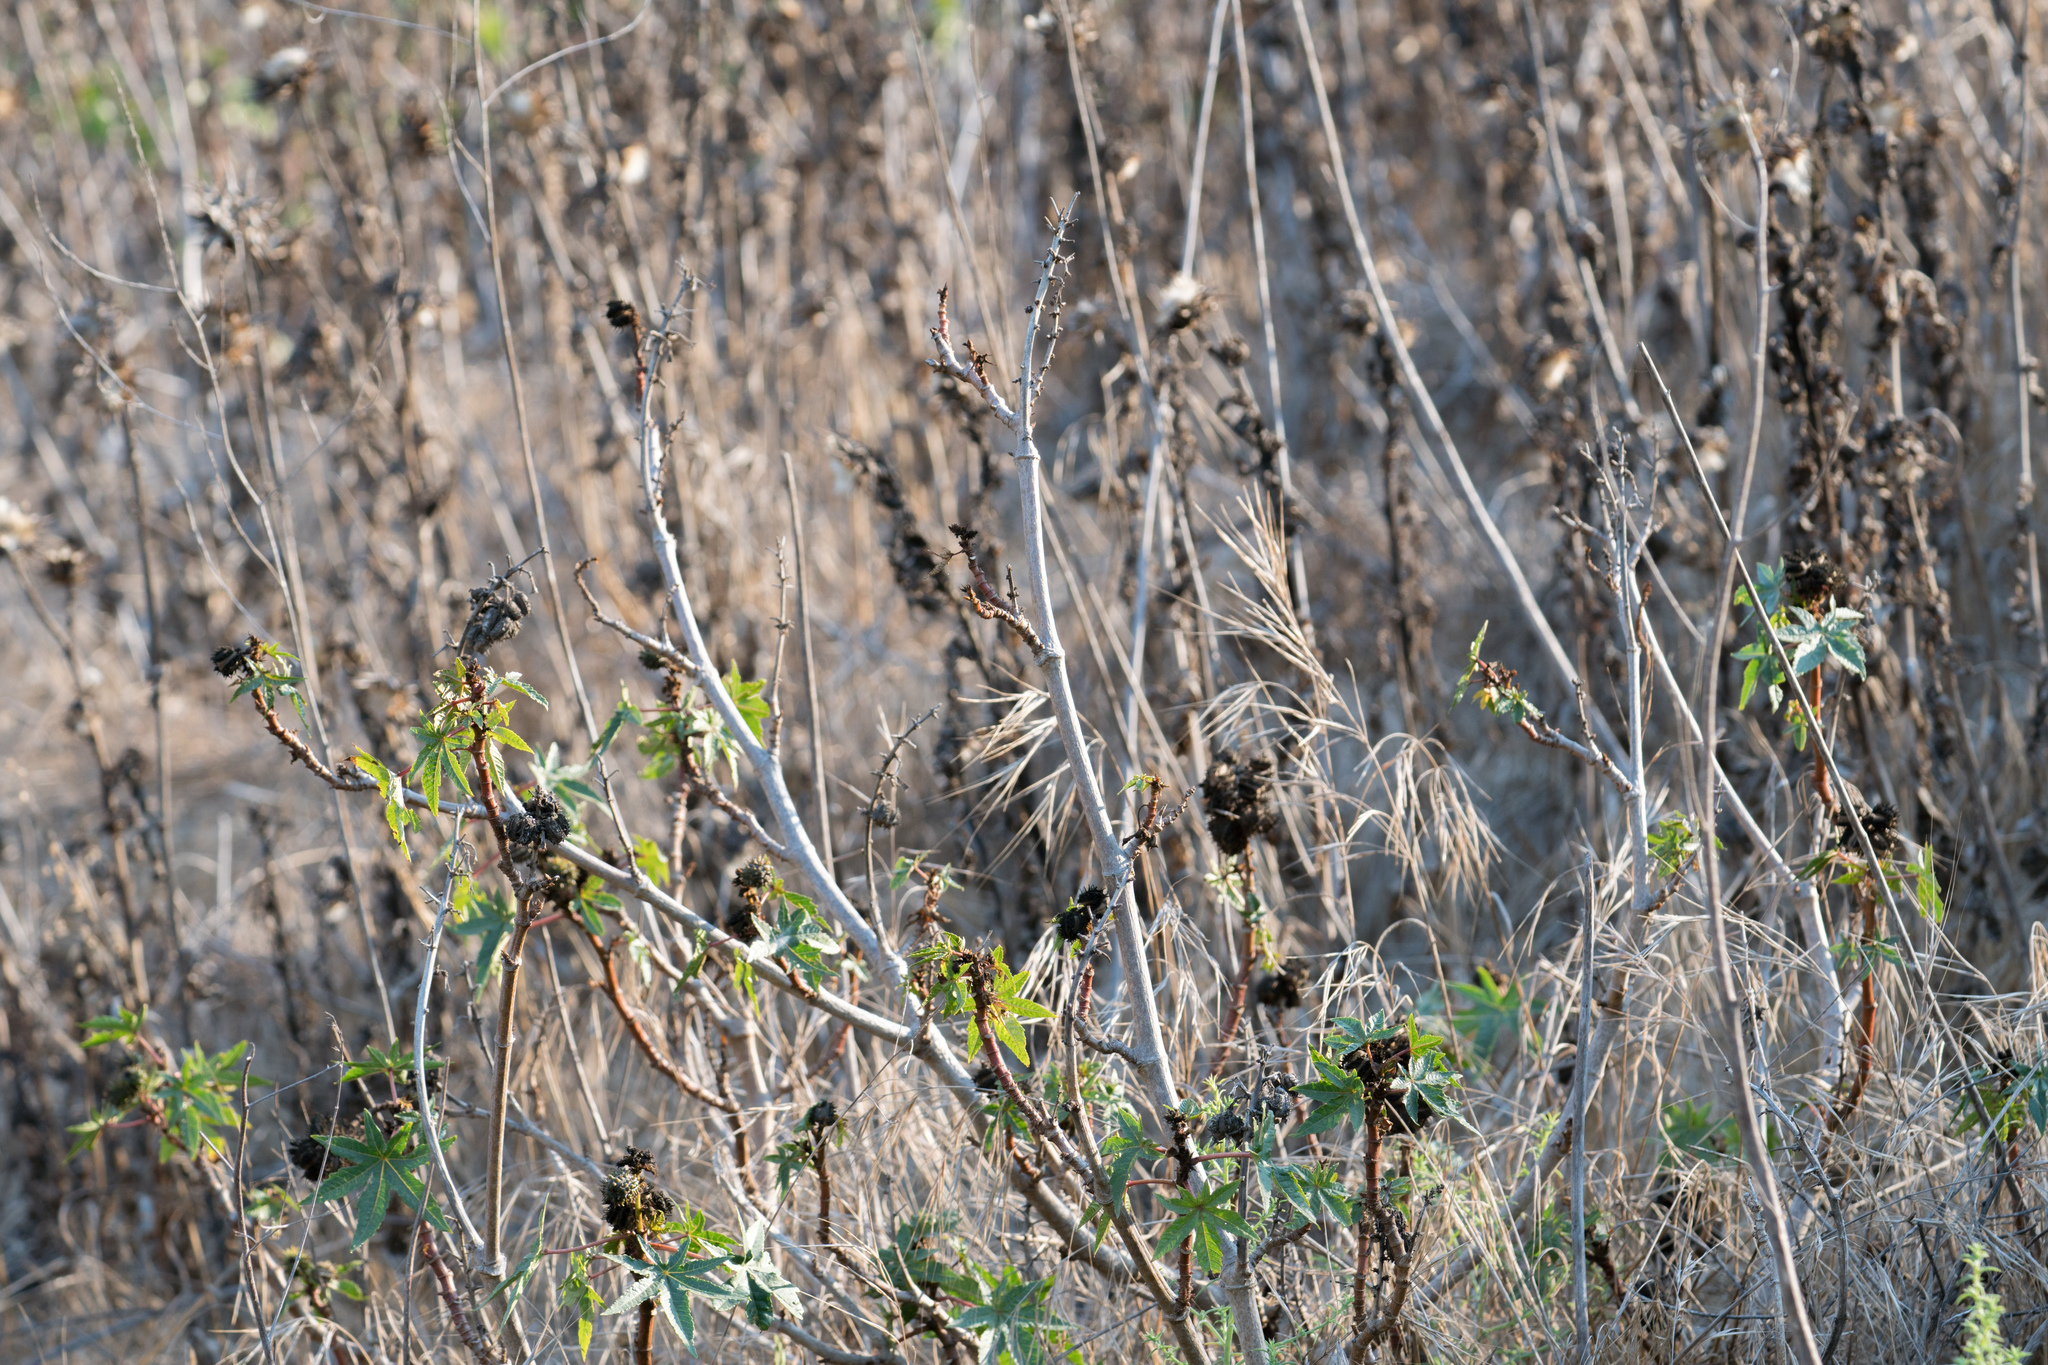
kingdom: Plantae
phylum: Tracheophyta
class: Magnoliopsida
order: Malpighiales
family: Euphorbiaceae
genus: Ricinus
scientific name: Ricinus communis
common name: Castor-oil-plant
